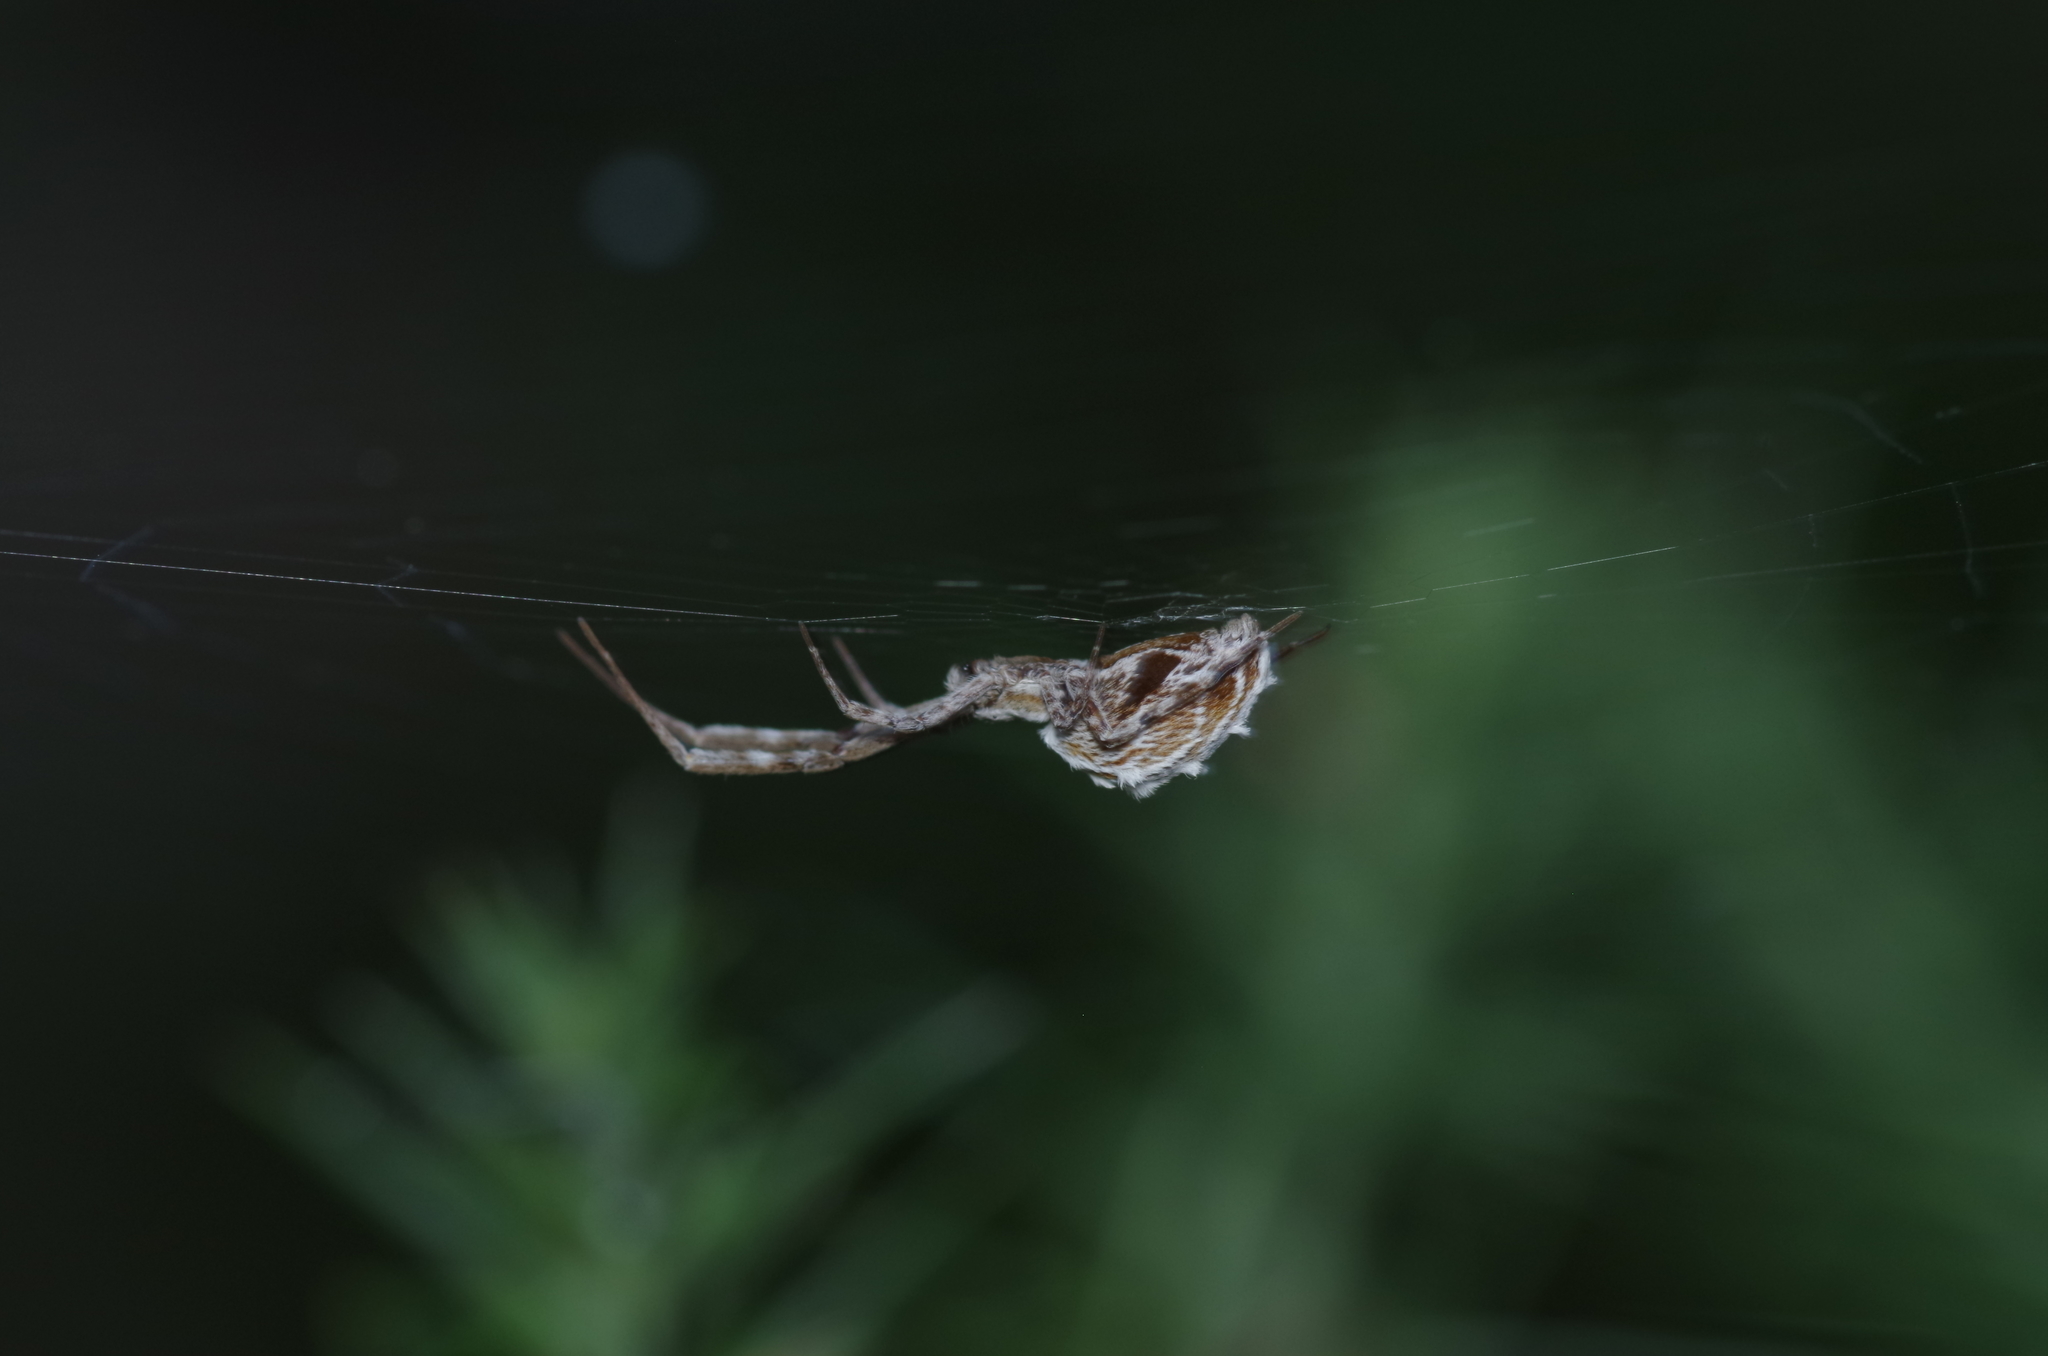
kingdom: Animalia
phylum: Arthropoda
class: Arachnida
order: Araneae
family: Uloboridae
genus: Uloborus
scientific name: Uloborus walckenaerius
